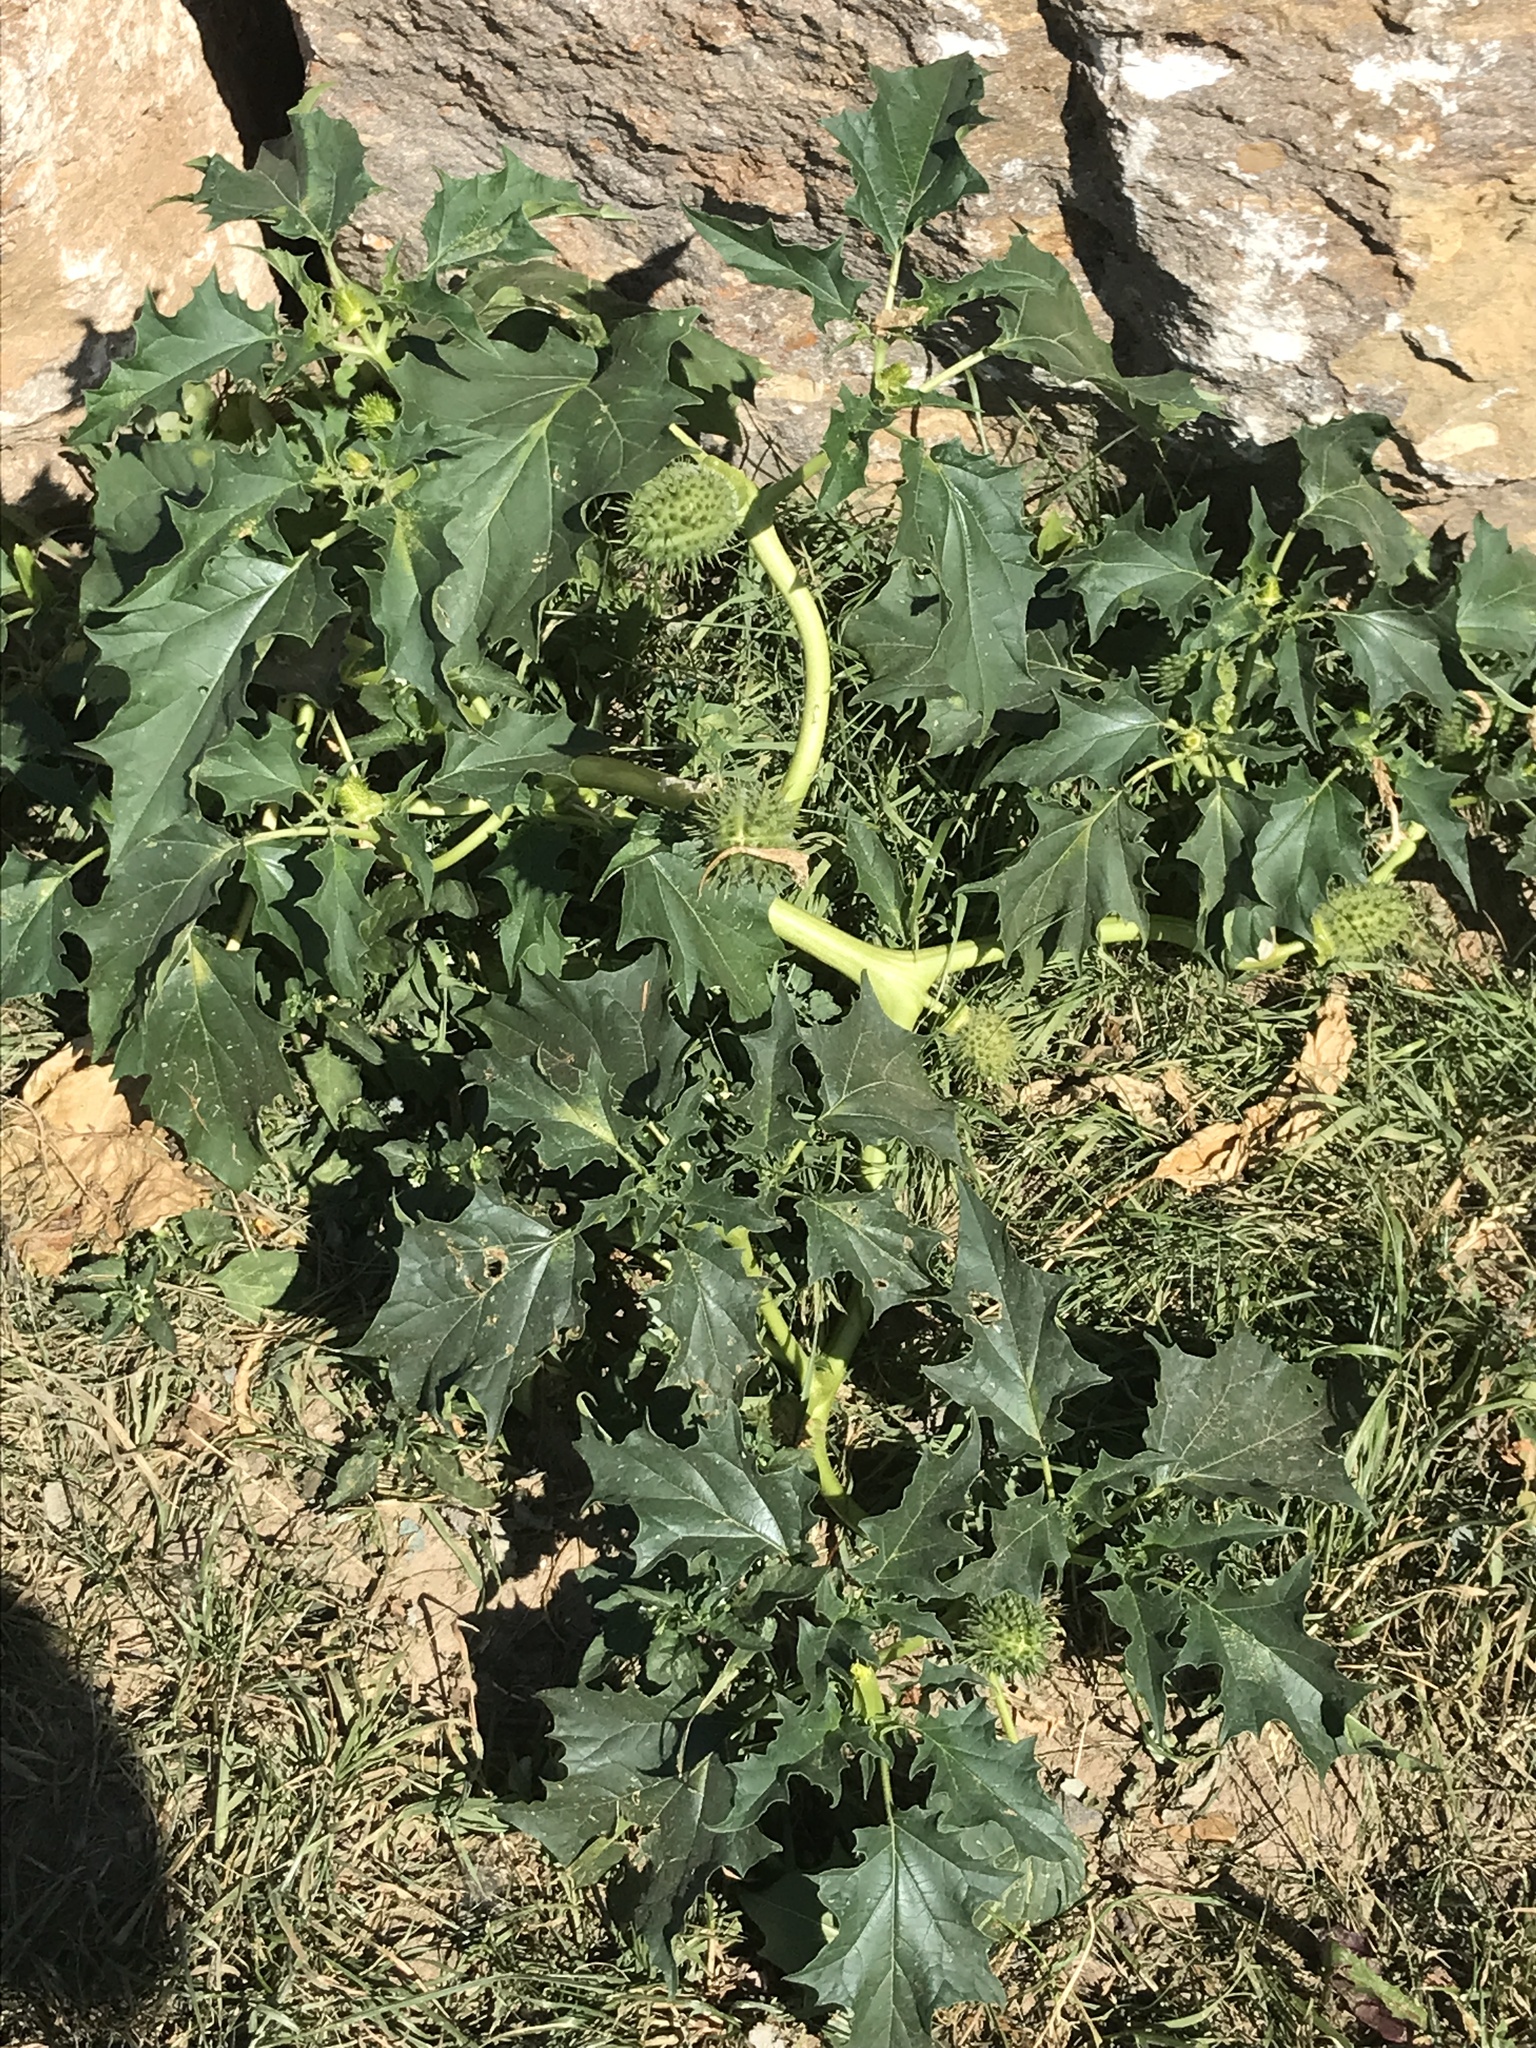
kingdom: Plantae
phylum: Tracheophyta
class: Magnoliopsida
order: Solanales
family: Solanaceae
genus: Datura
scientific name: Datura stramonium
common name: Thorn-apple
